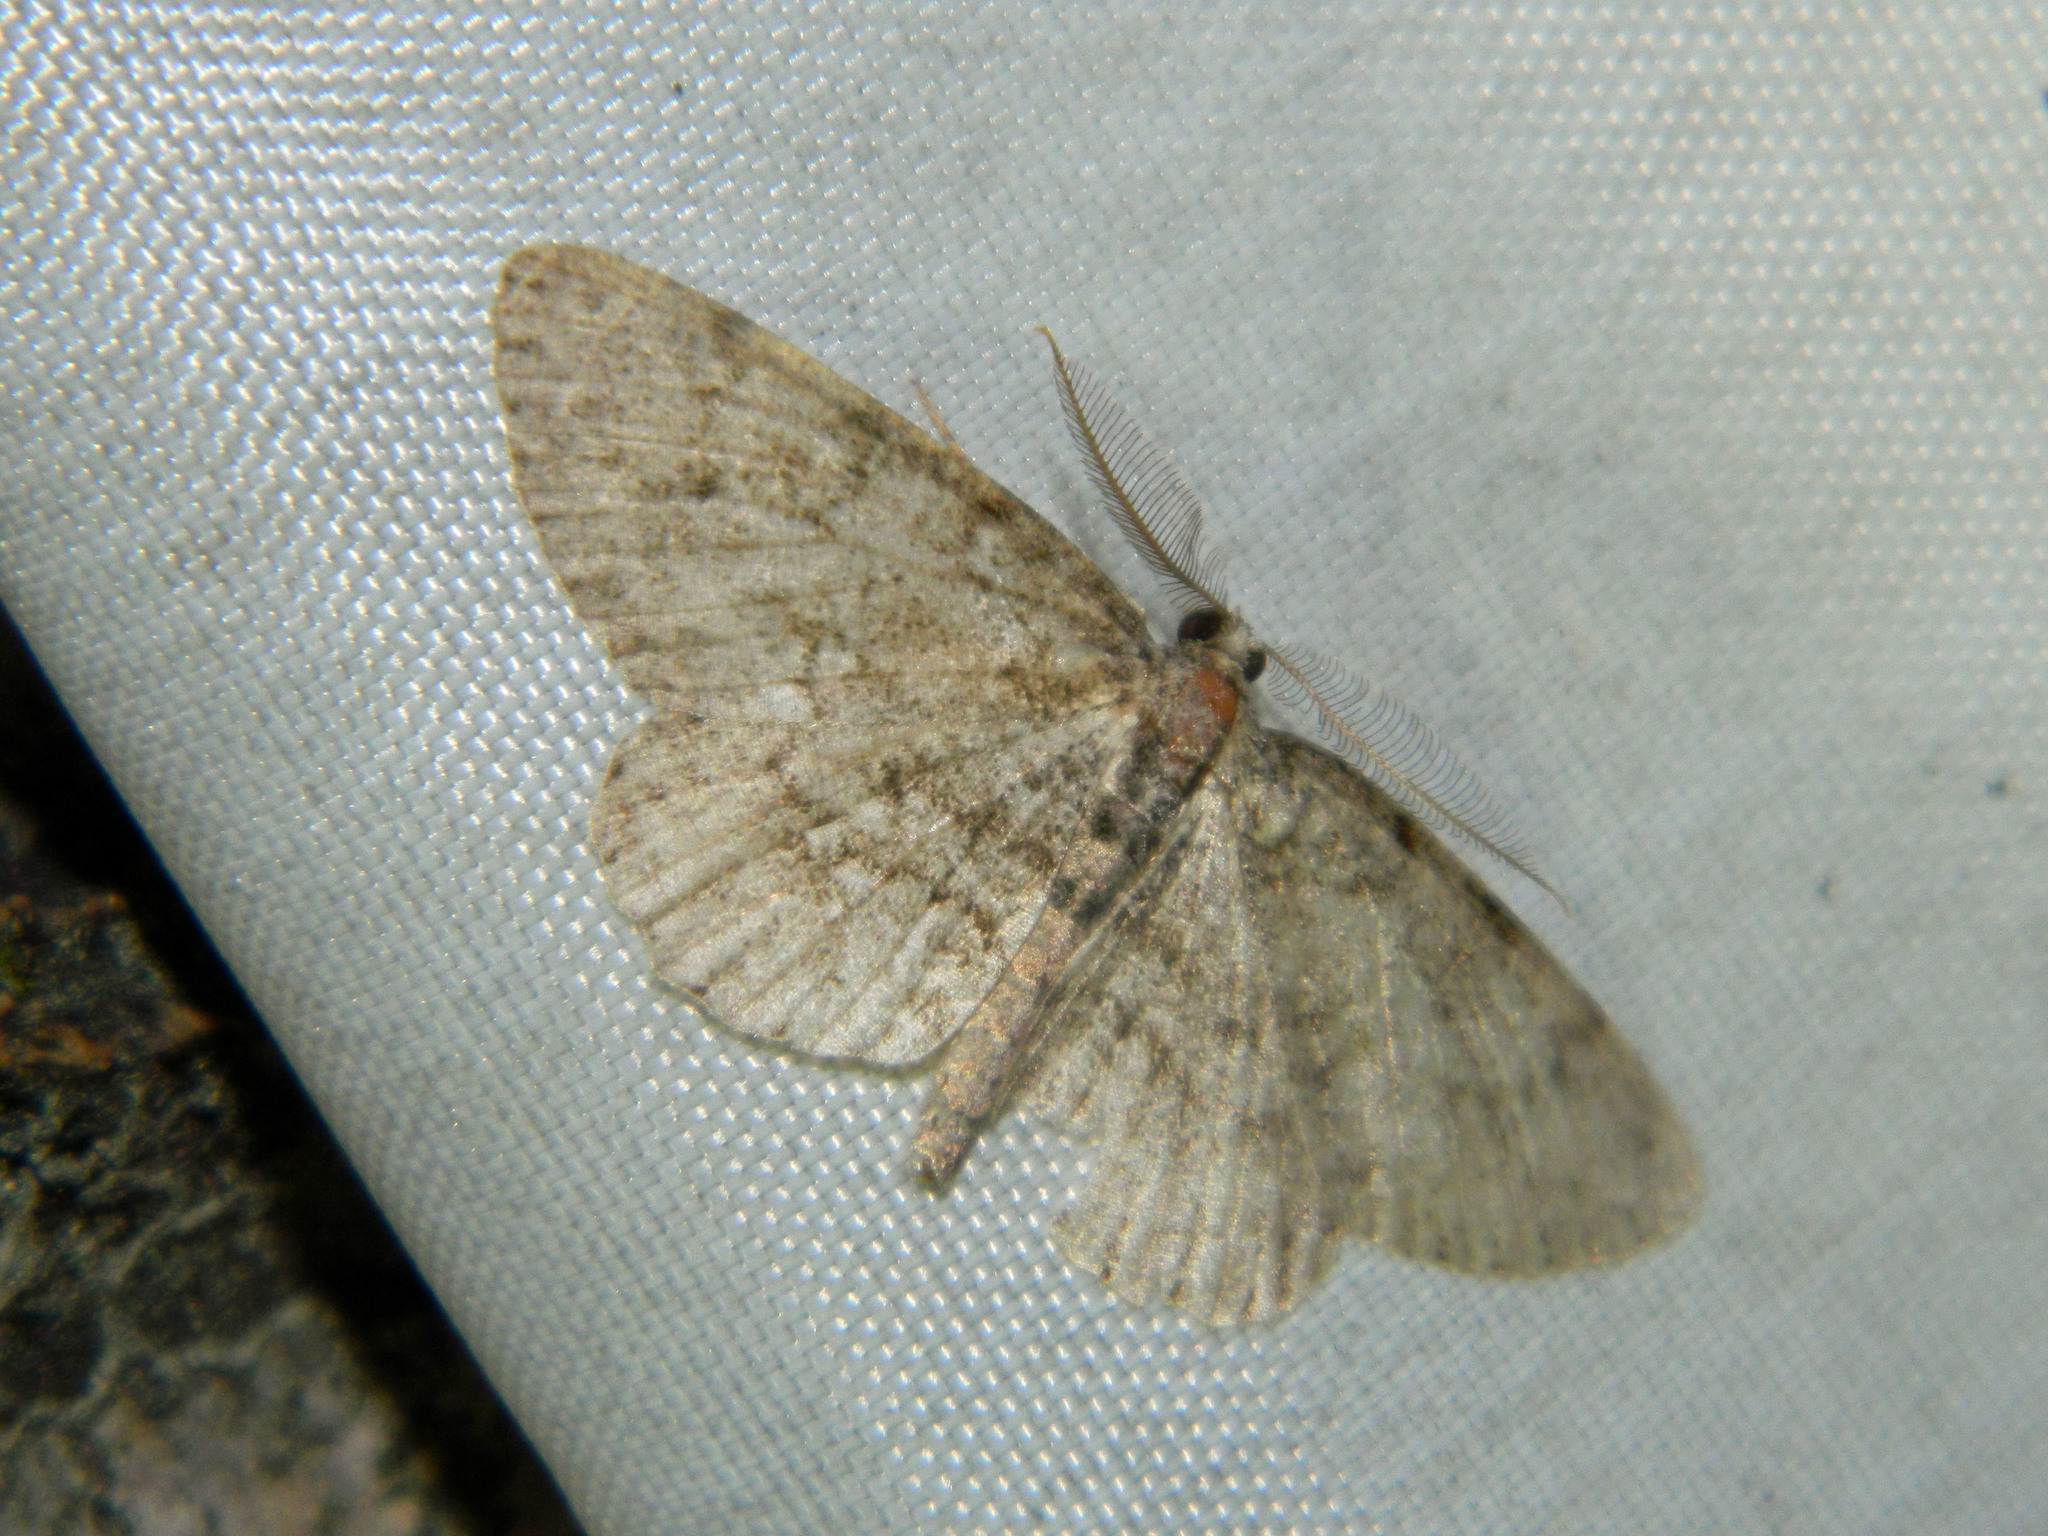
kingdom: Animalia
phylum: Arthropoda
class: Insecta
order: Lepidoptera
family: Geometridae
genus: Protoboarmia
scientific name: Protoboarmia porcelaria
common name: Porcelain gray
